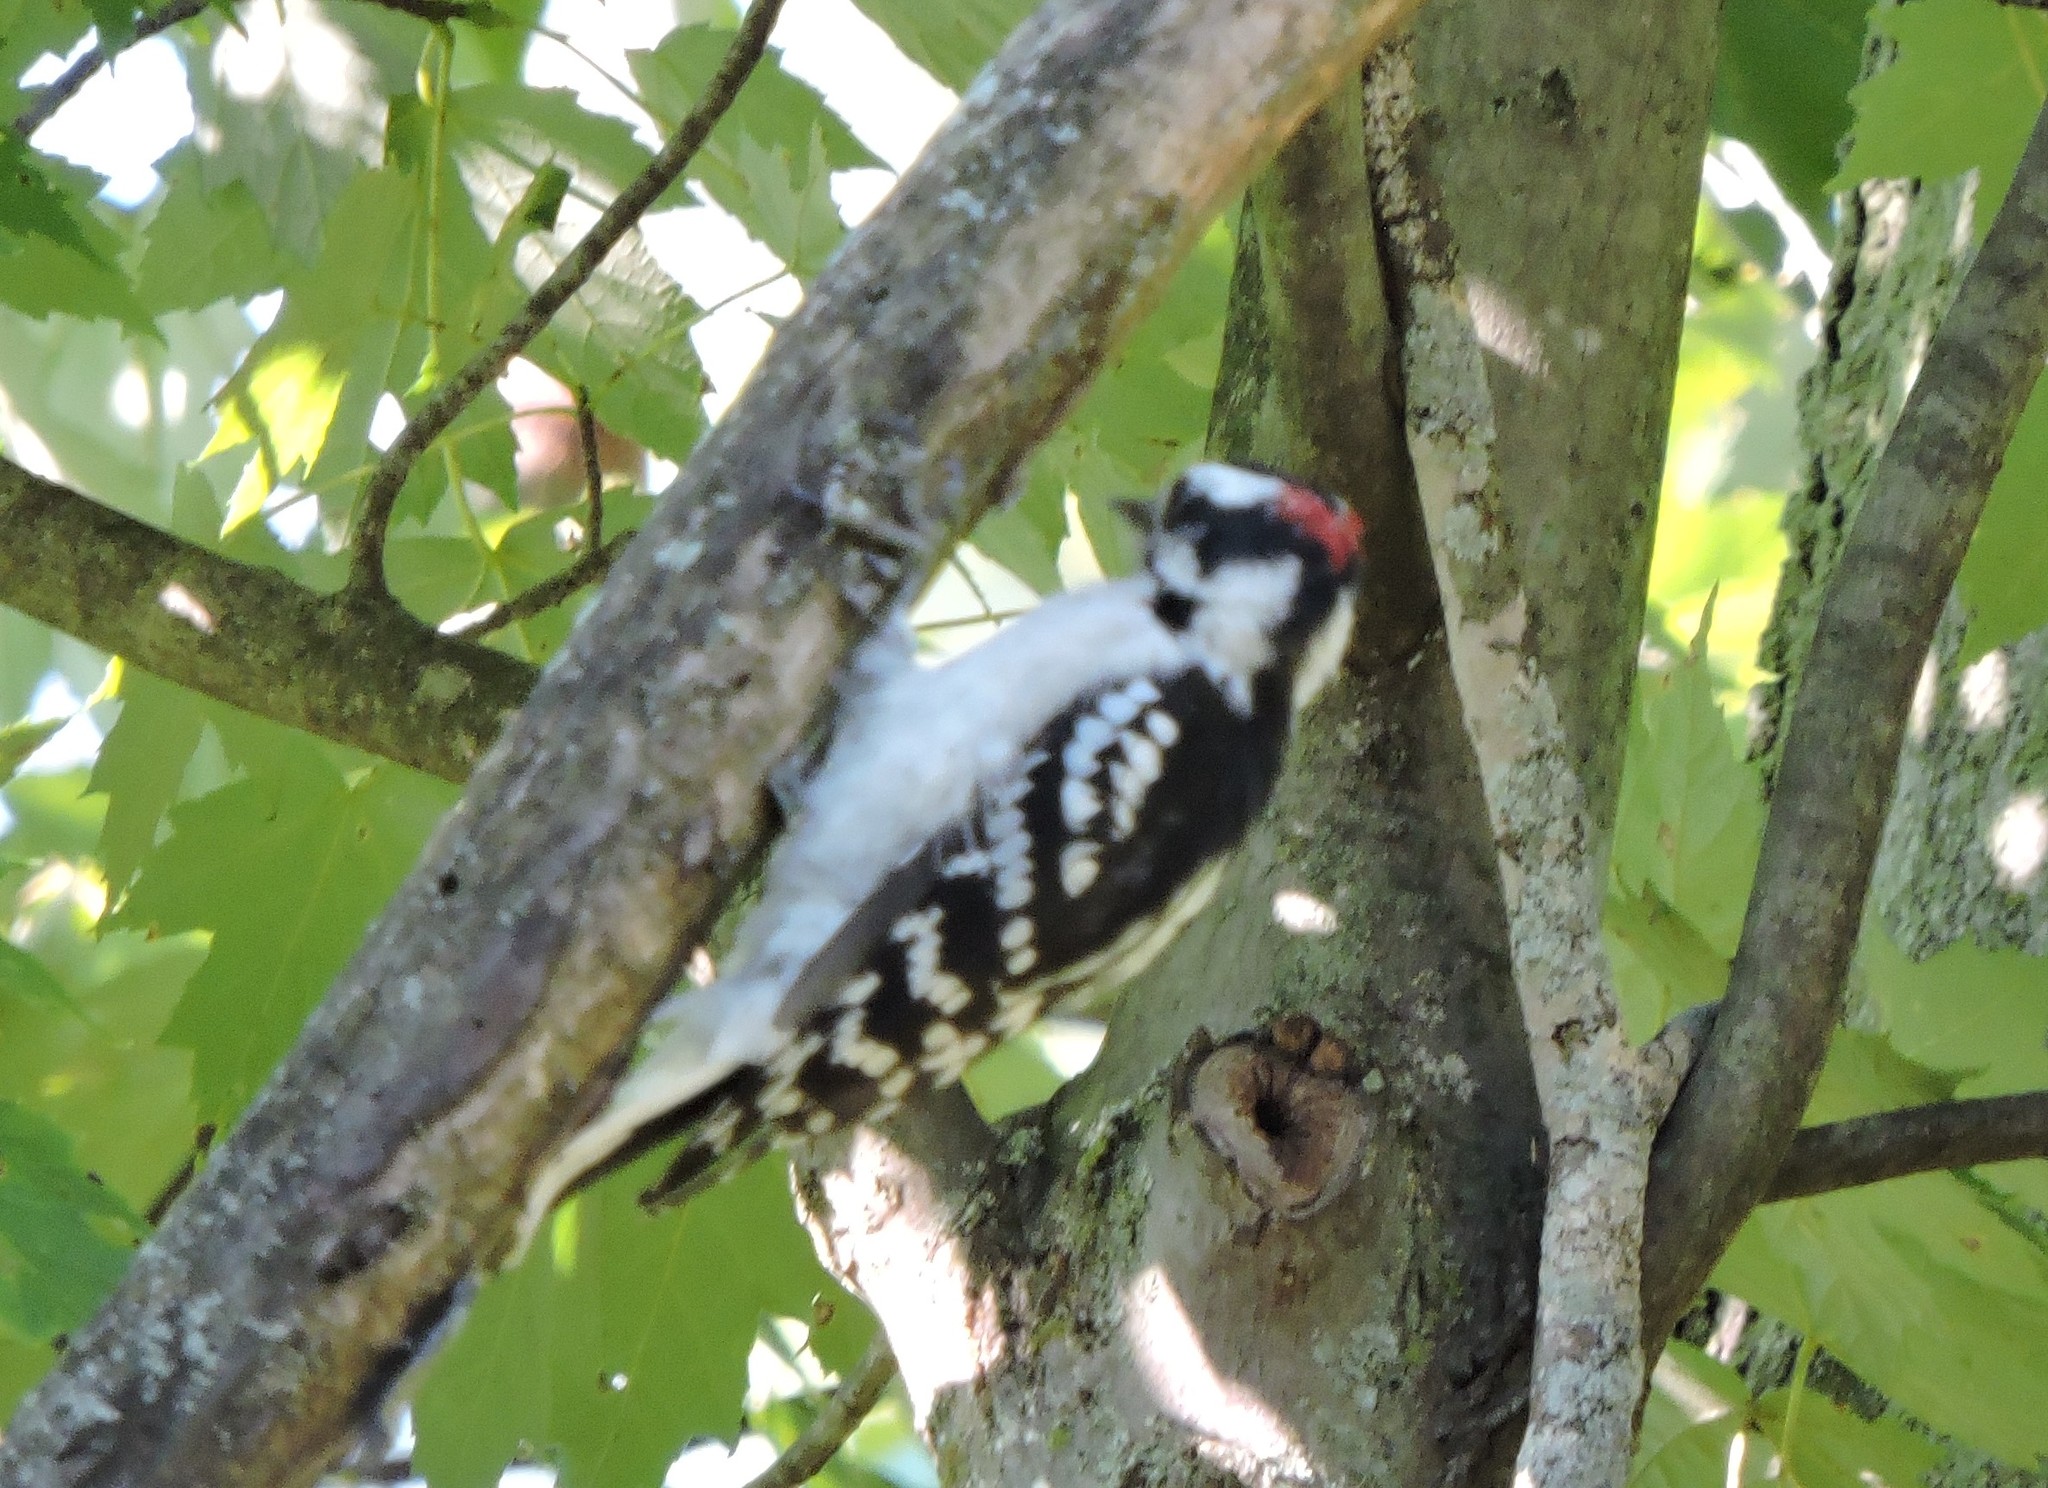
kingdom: Animalia
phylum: Chordata
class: Aves
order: Piciformes
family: Picidae
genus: Dryobates
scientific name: Dryobates pubescens
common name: Downy woodpecker
